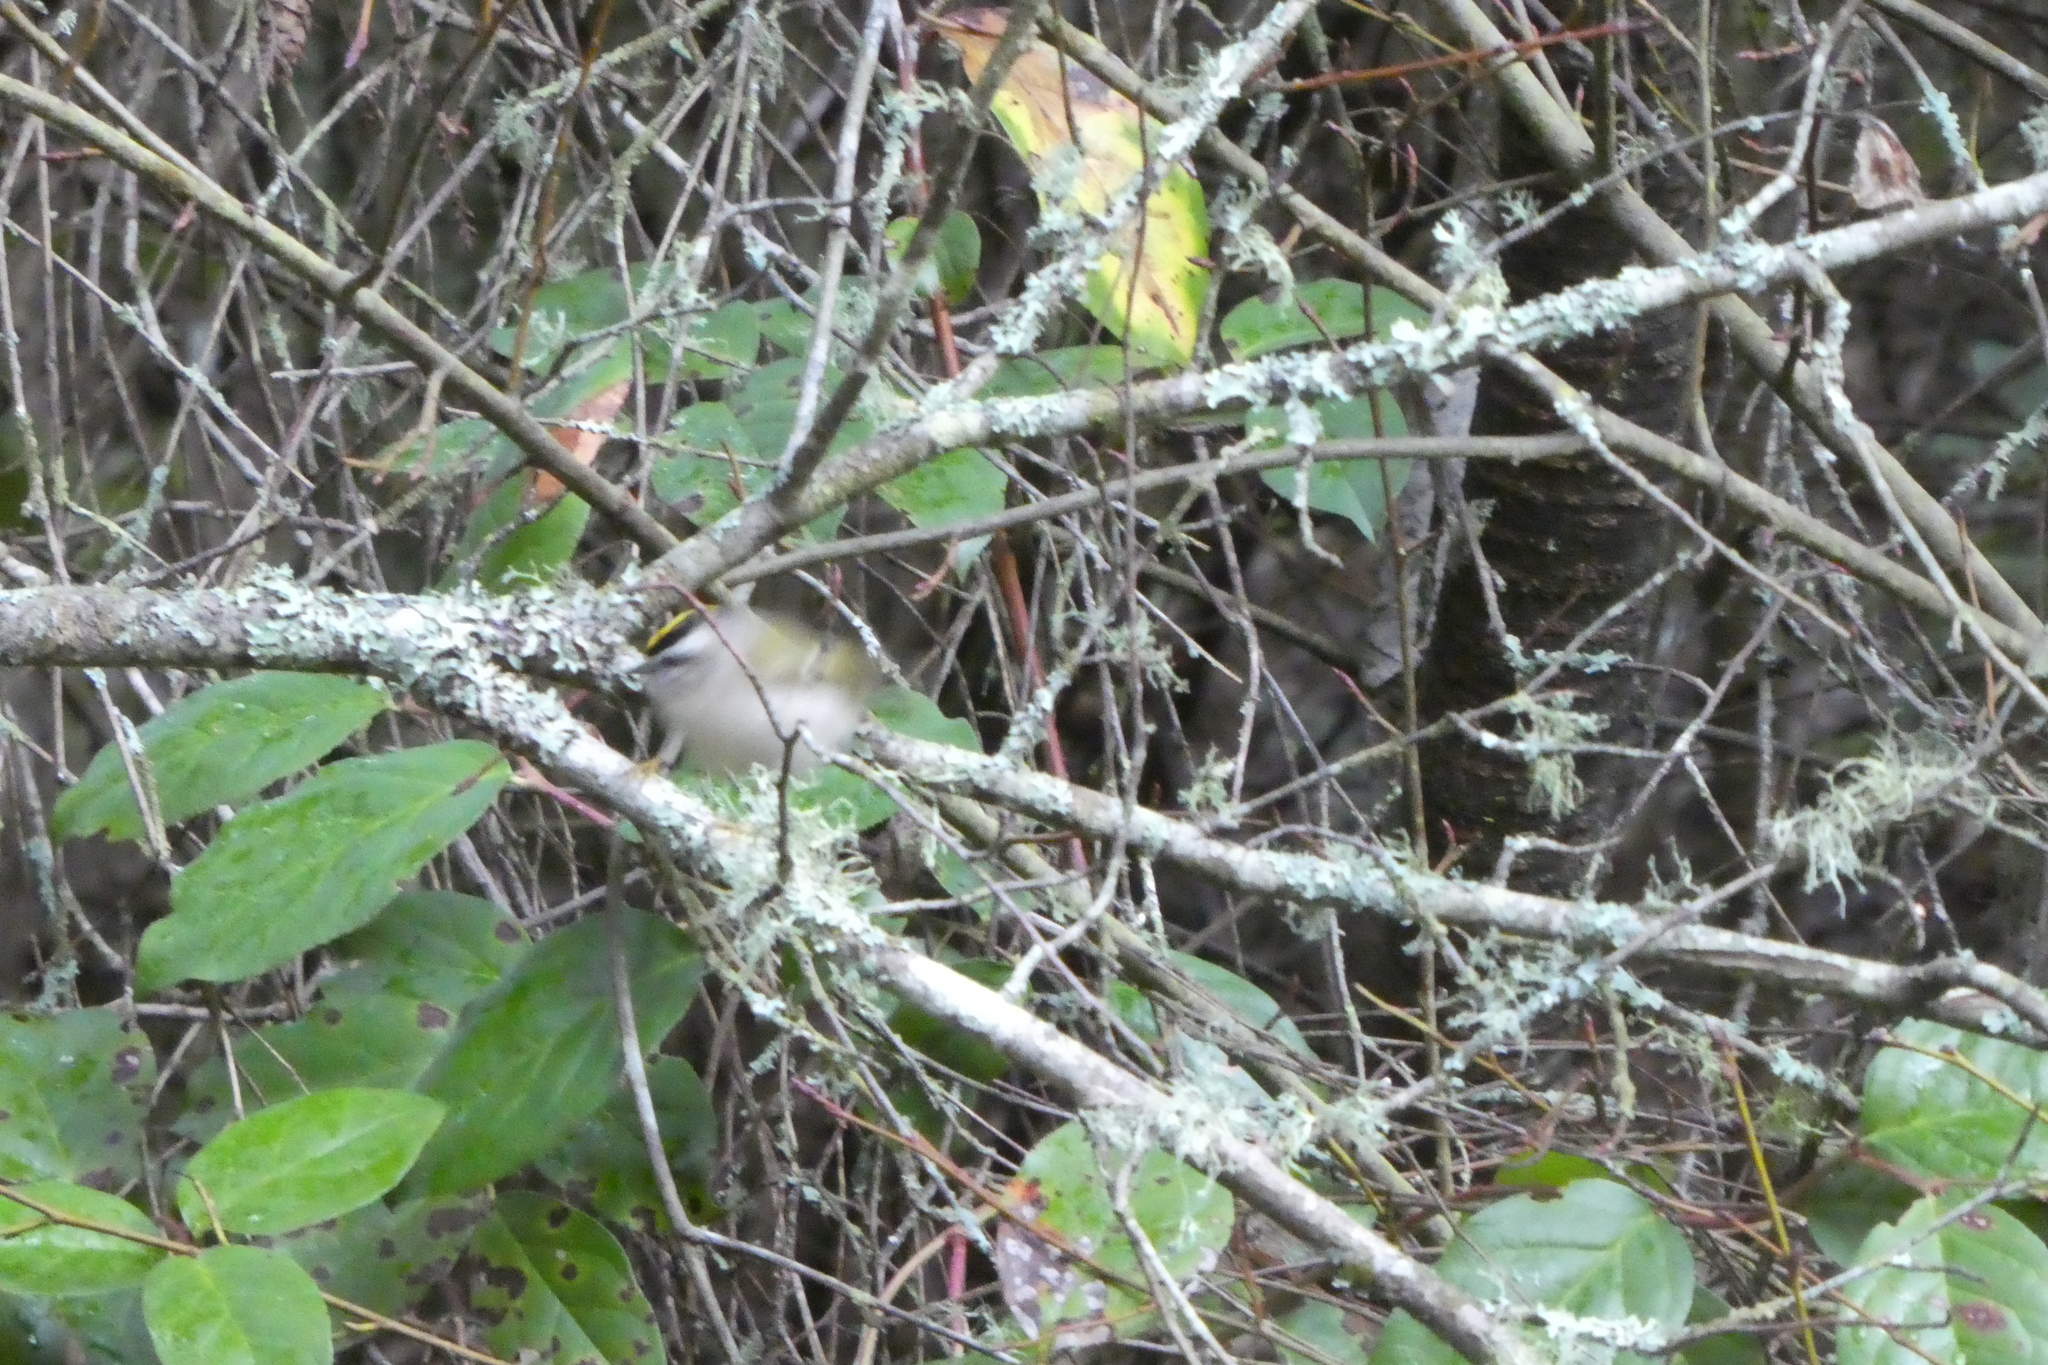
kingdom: Animalia
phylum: Chordata
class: Aves
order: Passeriformes
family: Regulidae
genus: Regulus
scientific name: Regulus satrapa
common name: Golden-crowned kinglet
